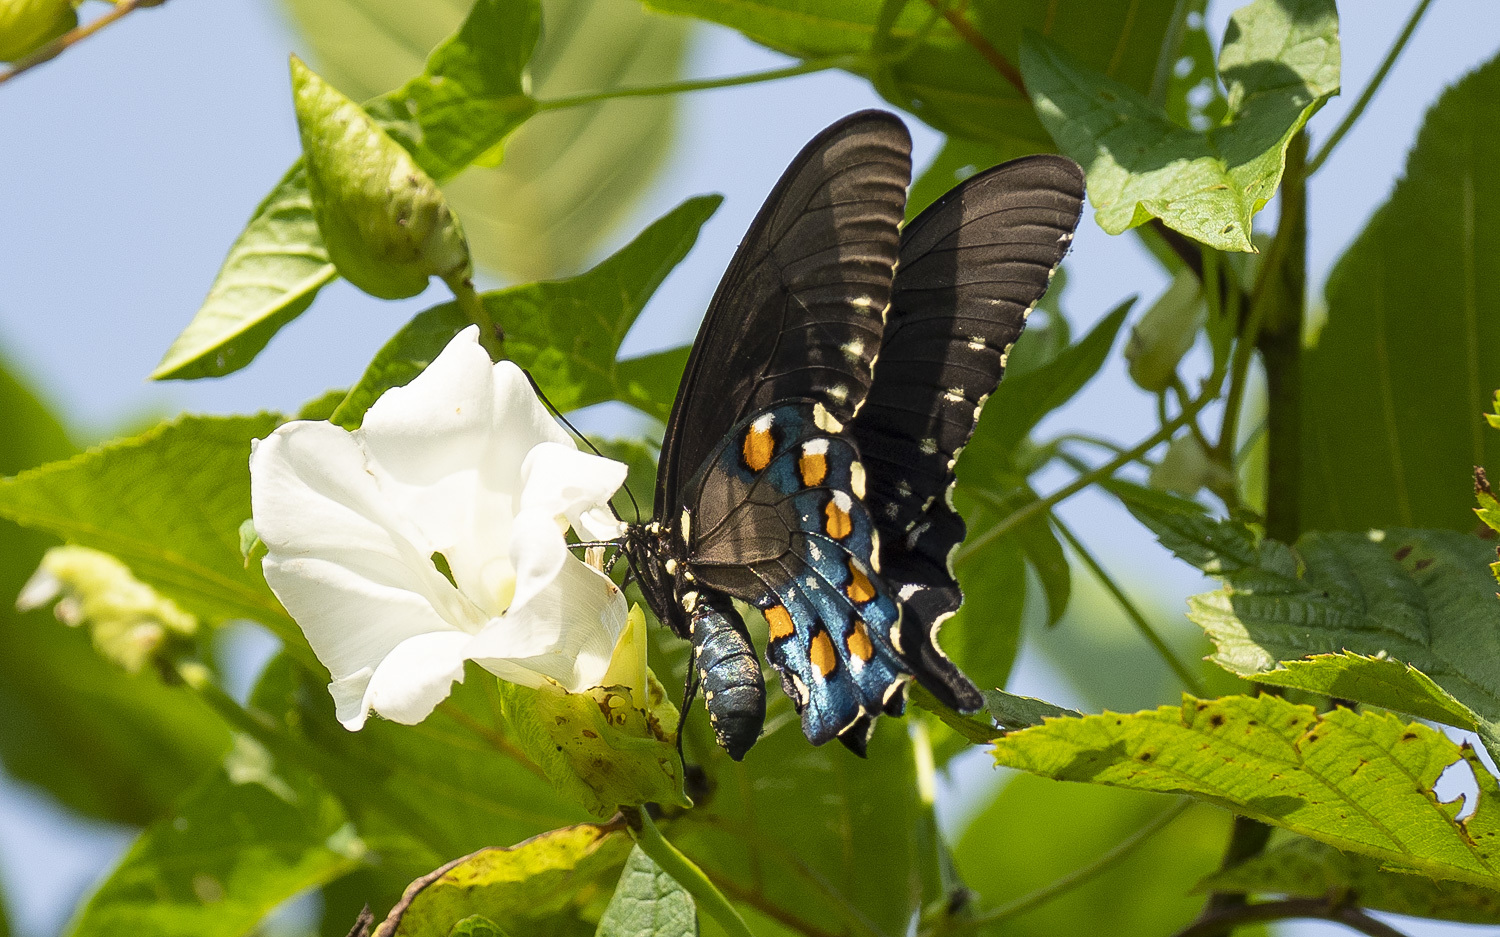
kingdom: Animalia
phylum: Arthropoda
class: Insecta
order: Lepidoptera
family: Papilionidae
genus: Battus
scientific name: Battus philenor
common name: Pipevine swallowtail
